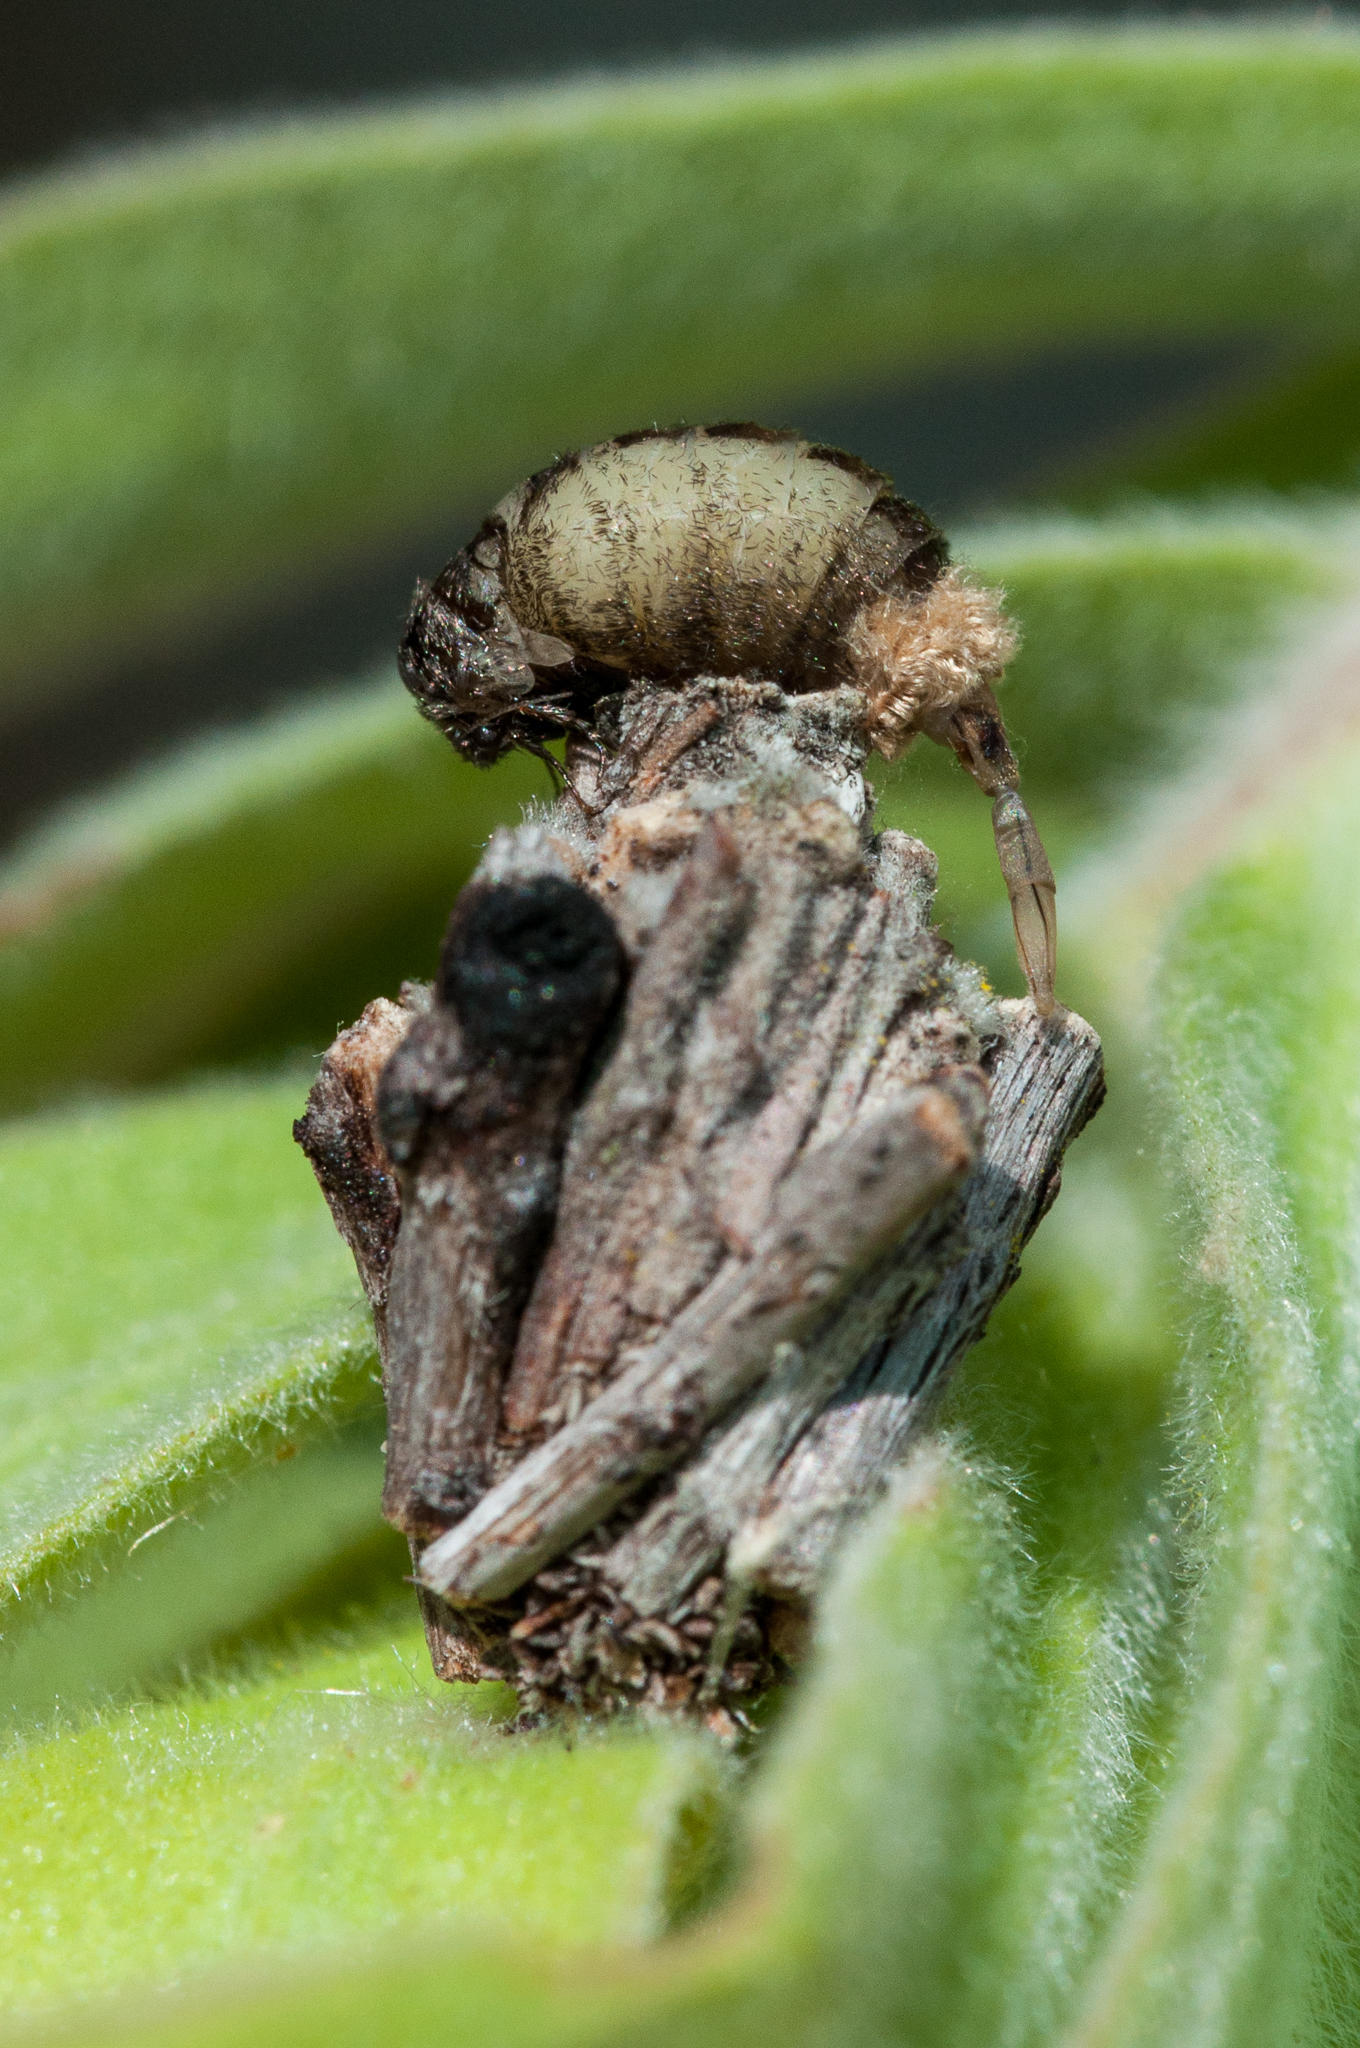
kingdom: Animalia
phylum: Arthropoda
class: Insecta
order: Lepidoptera
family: Psychidae
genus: Typhonia
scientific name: Typhonia picea
